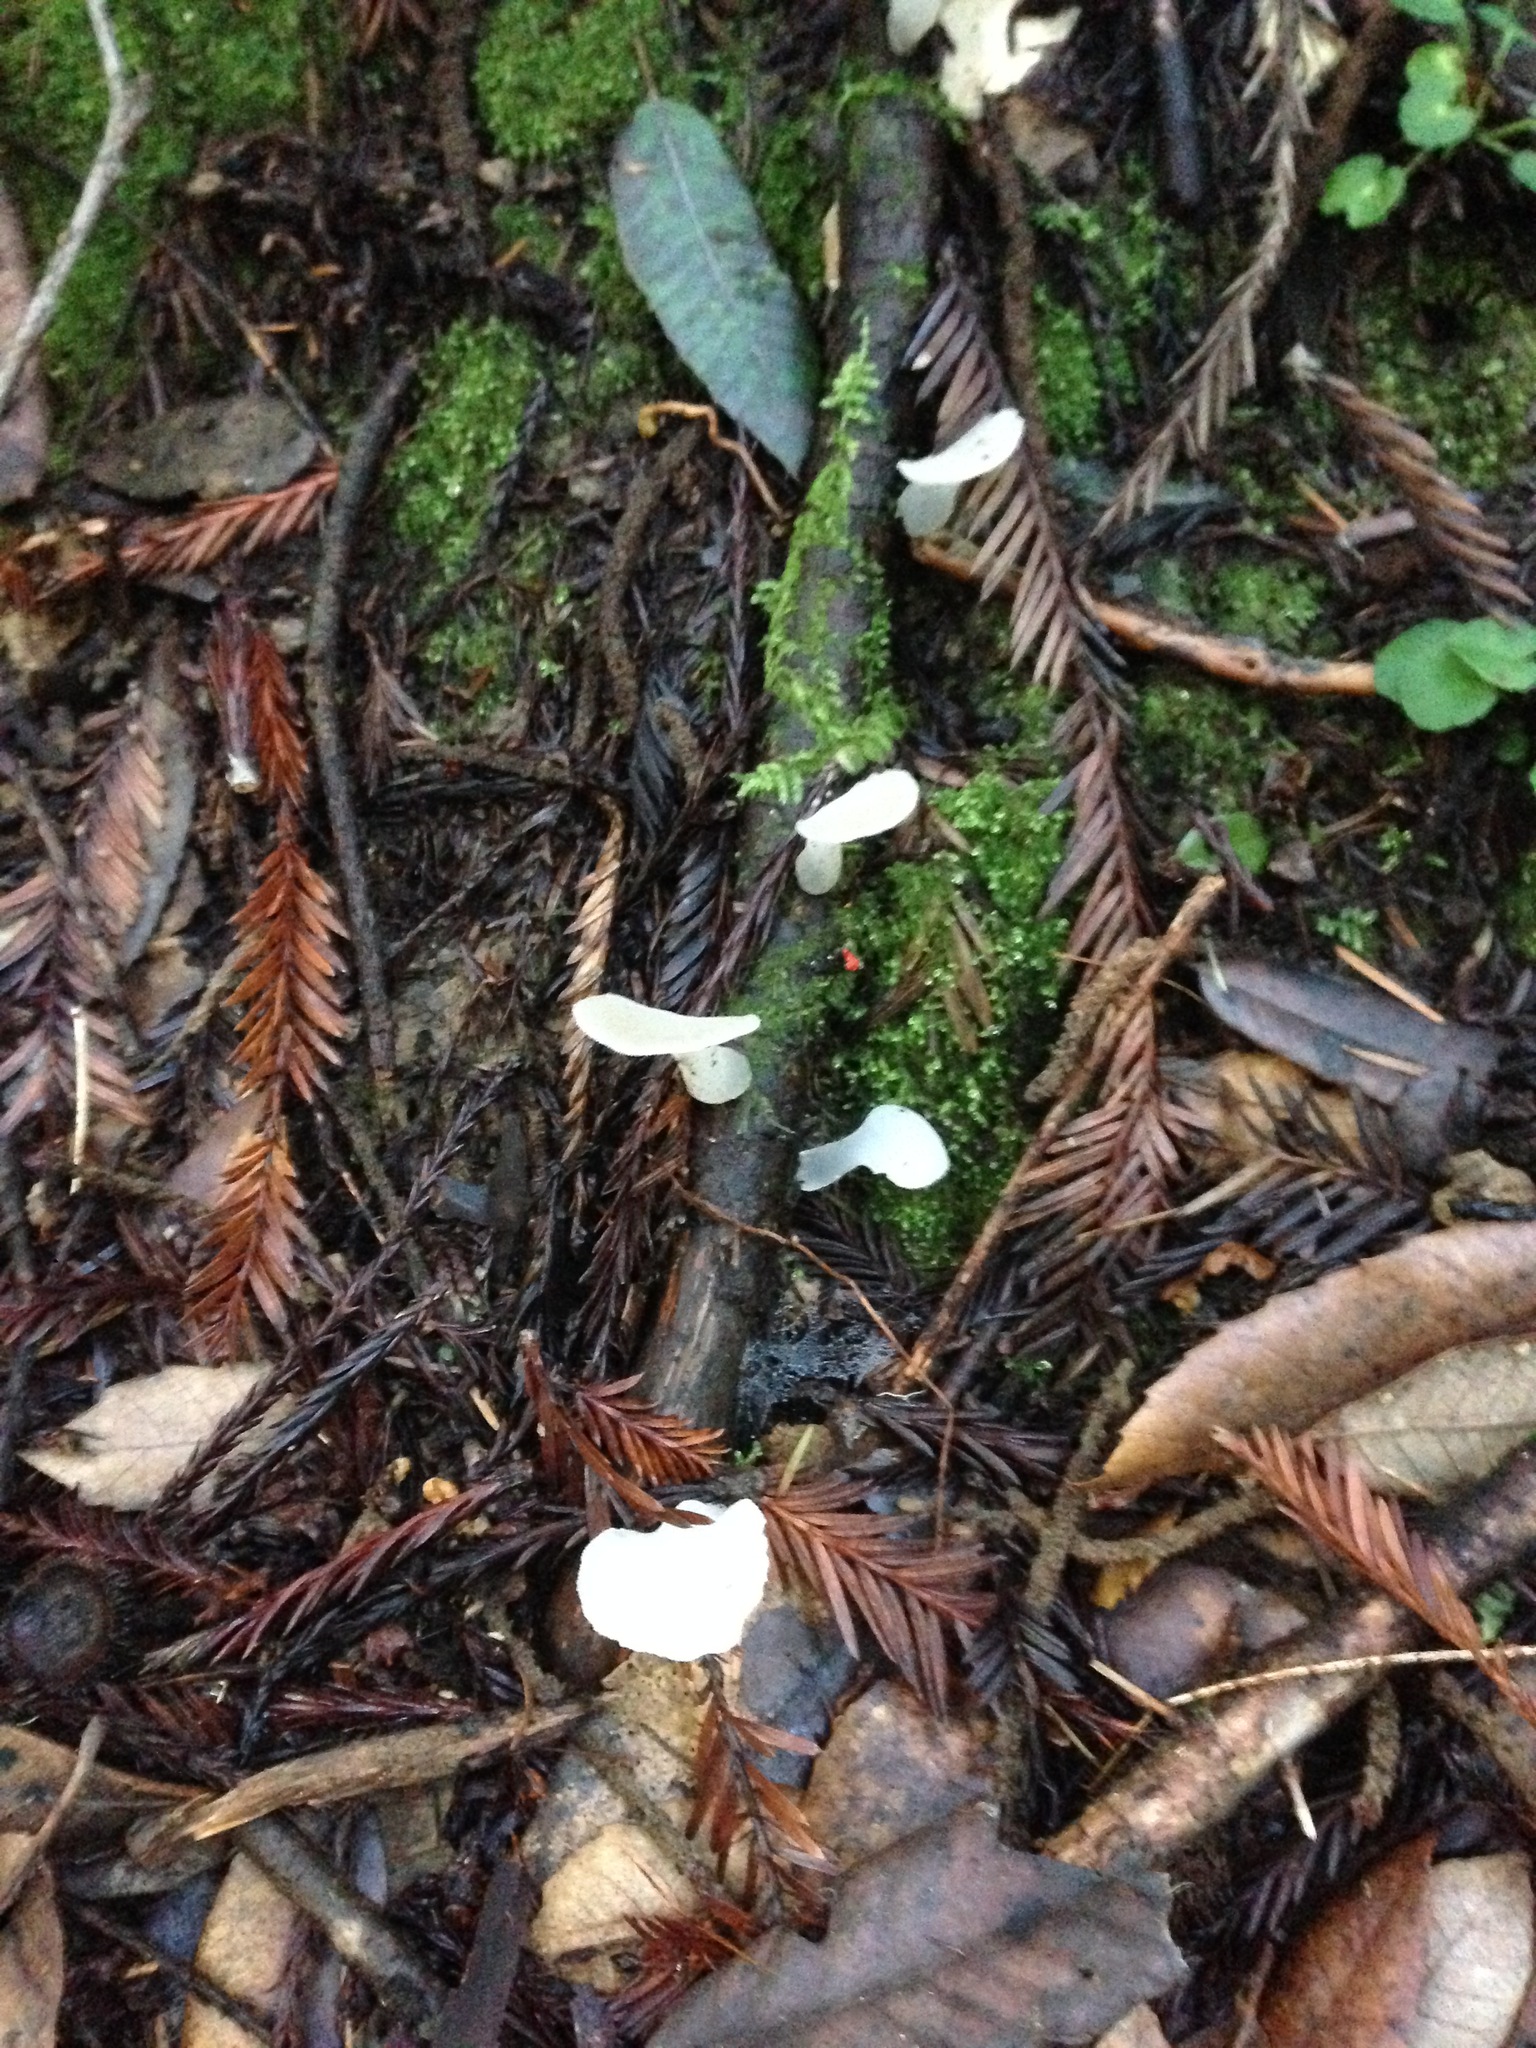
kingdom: Fungi
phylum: Basidiomycota
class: Agaricomycetes
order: Auriculariales
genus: Pseudohydnum
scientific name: Pseudohydnum gelatinosum
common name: Jelly tongue
